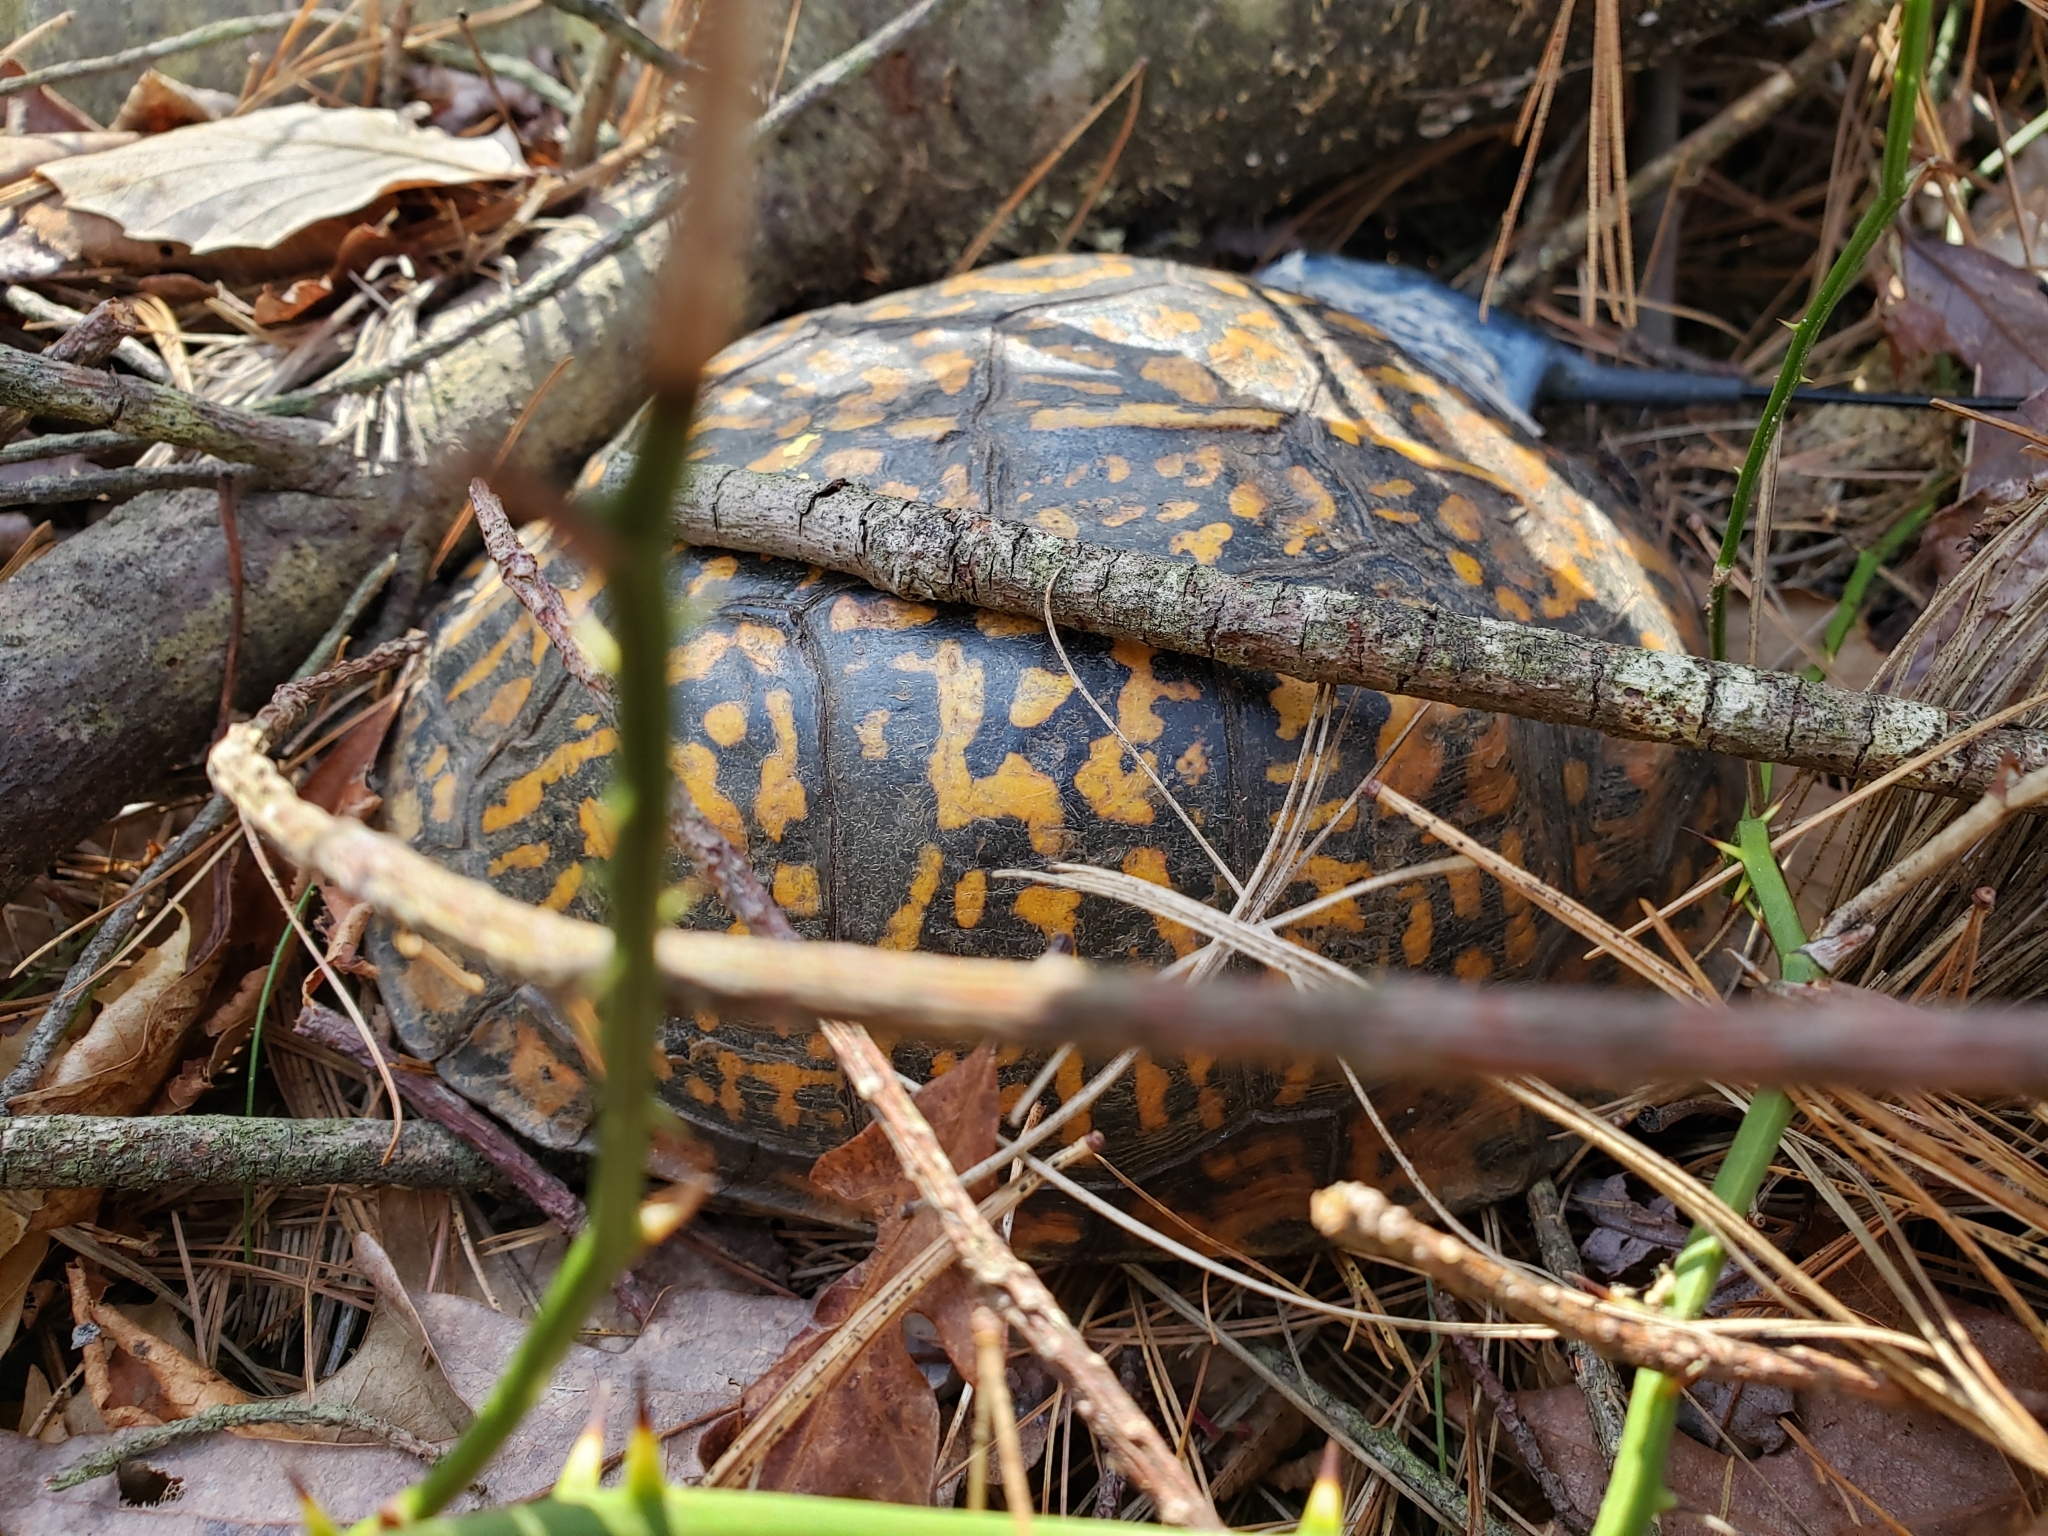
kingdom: Animalia
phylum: Chordata
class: Testudines
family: Emydidae
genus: Terrapene
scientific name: Terrapene carolina
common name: Common box turtle
